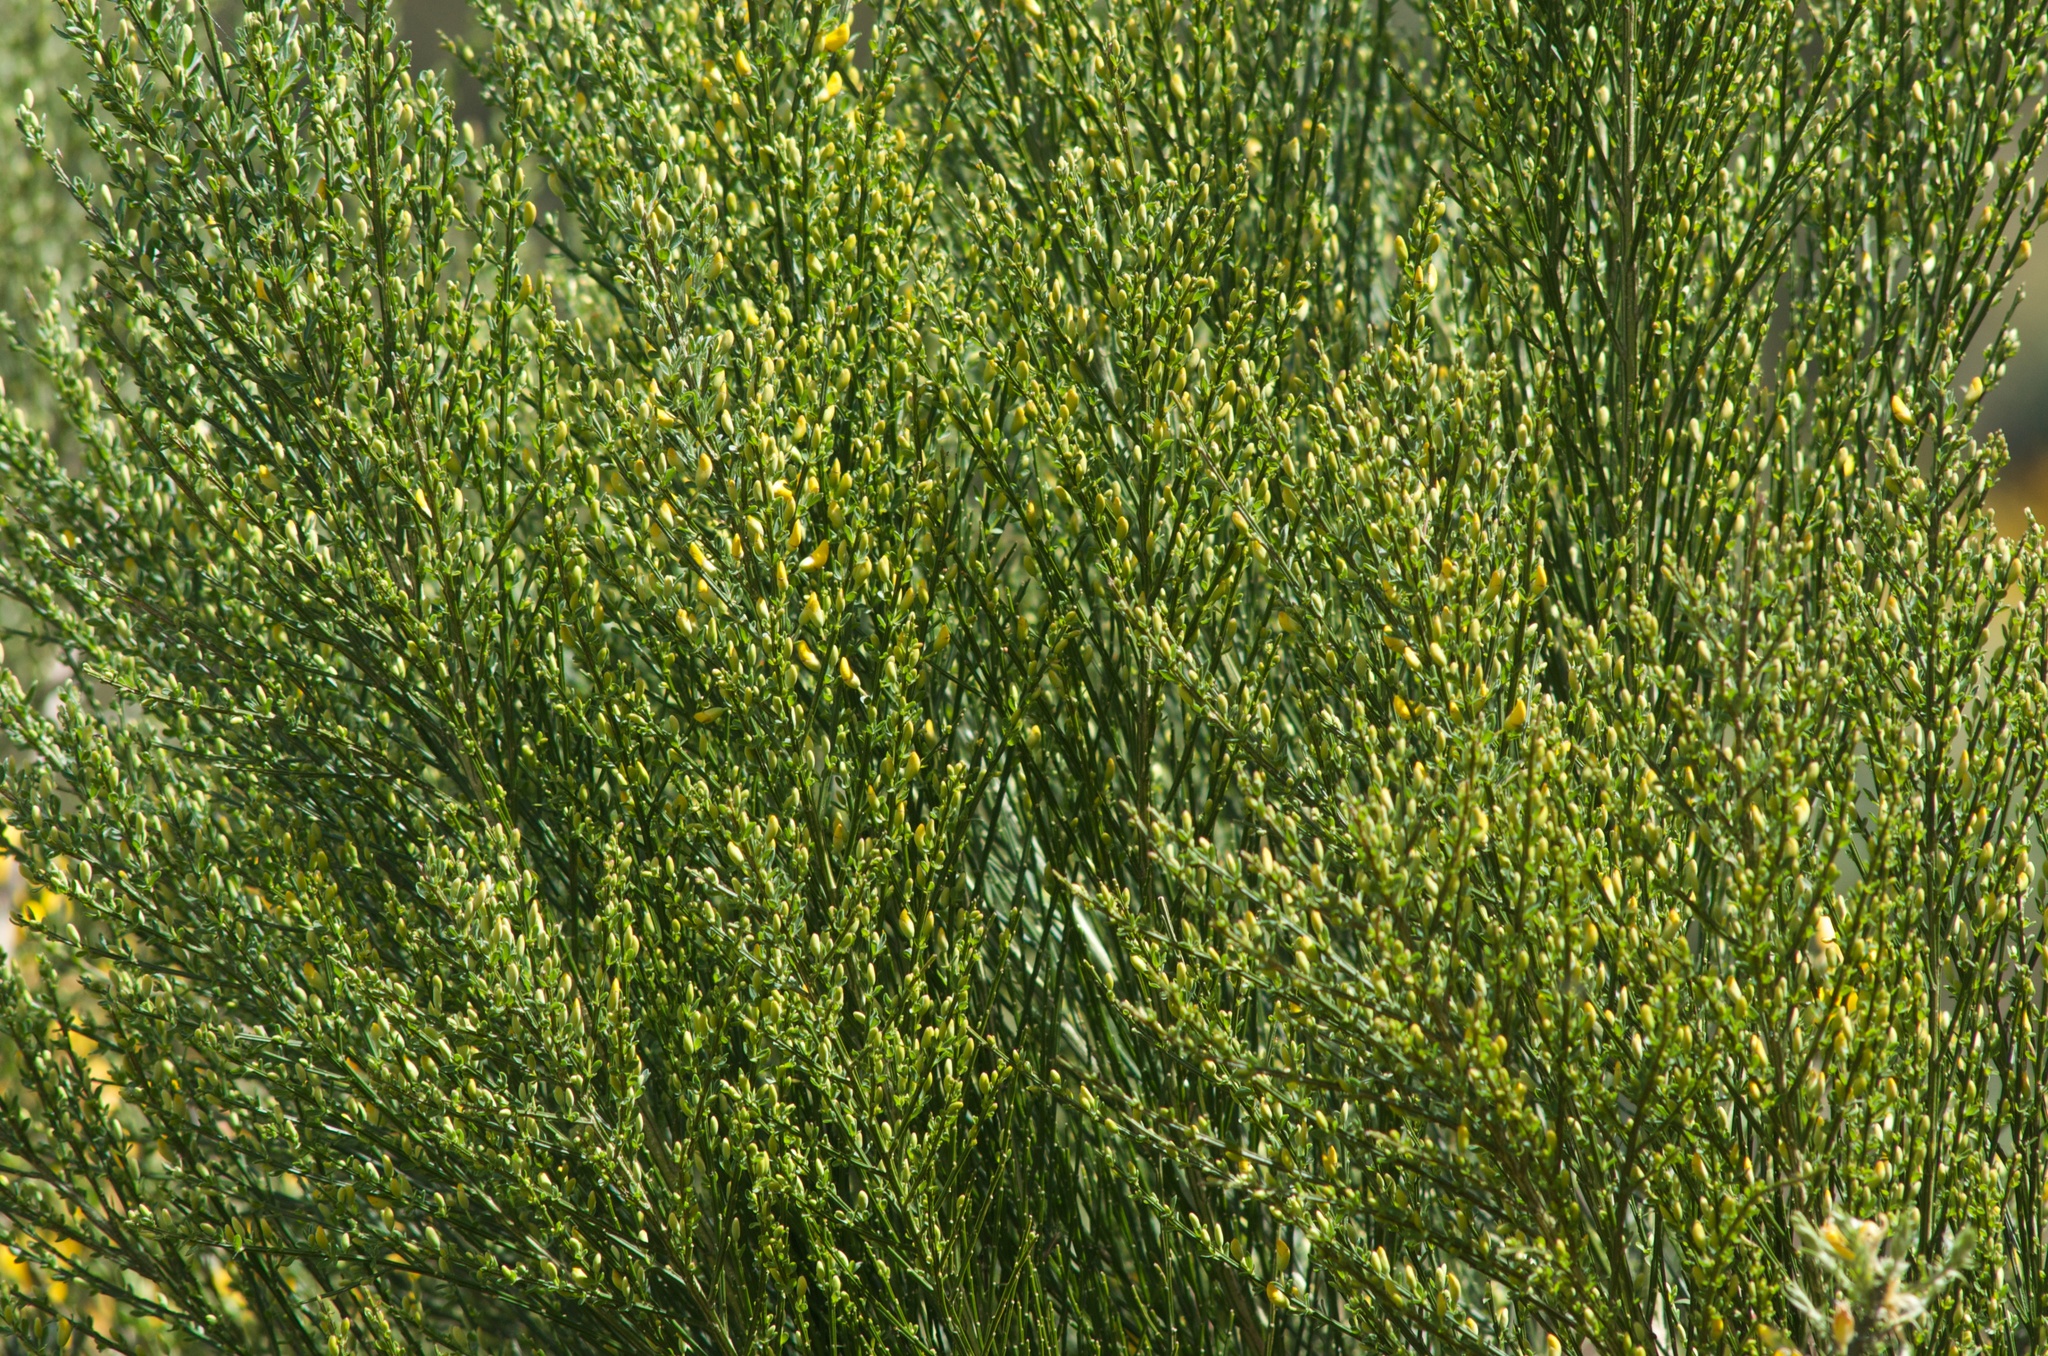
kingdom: Plantae
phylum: Tracheophyta
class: Magnoliopsida
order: Fabales
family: Fabaceae
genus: Cytisus
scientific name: Cytisus scoparius
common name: Scotch broom
